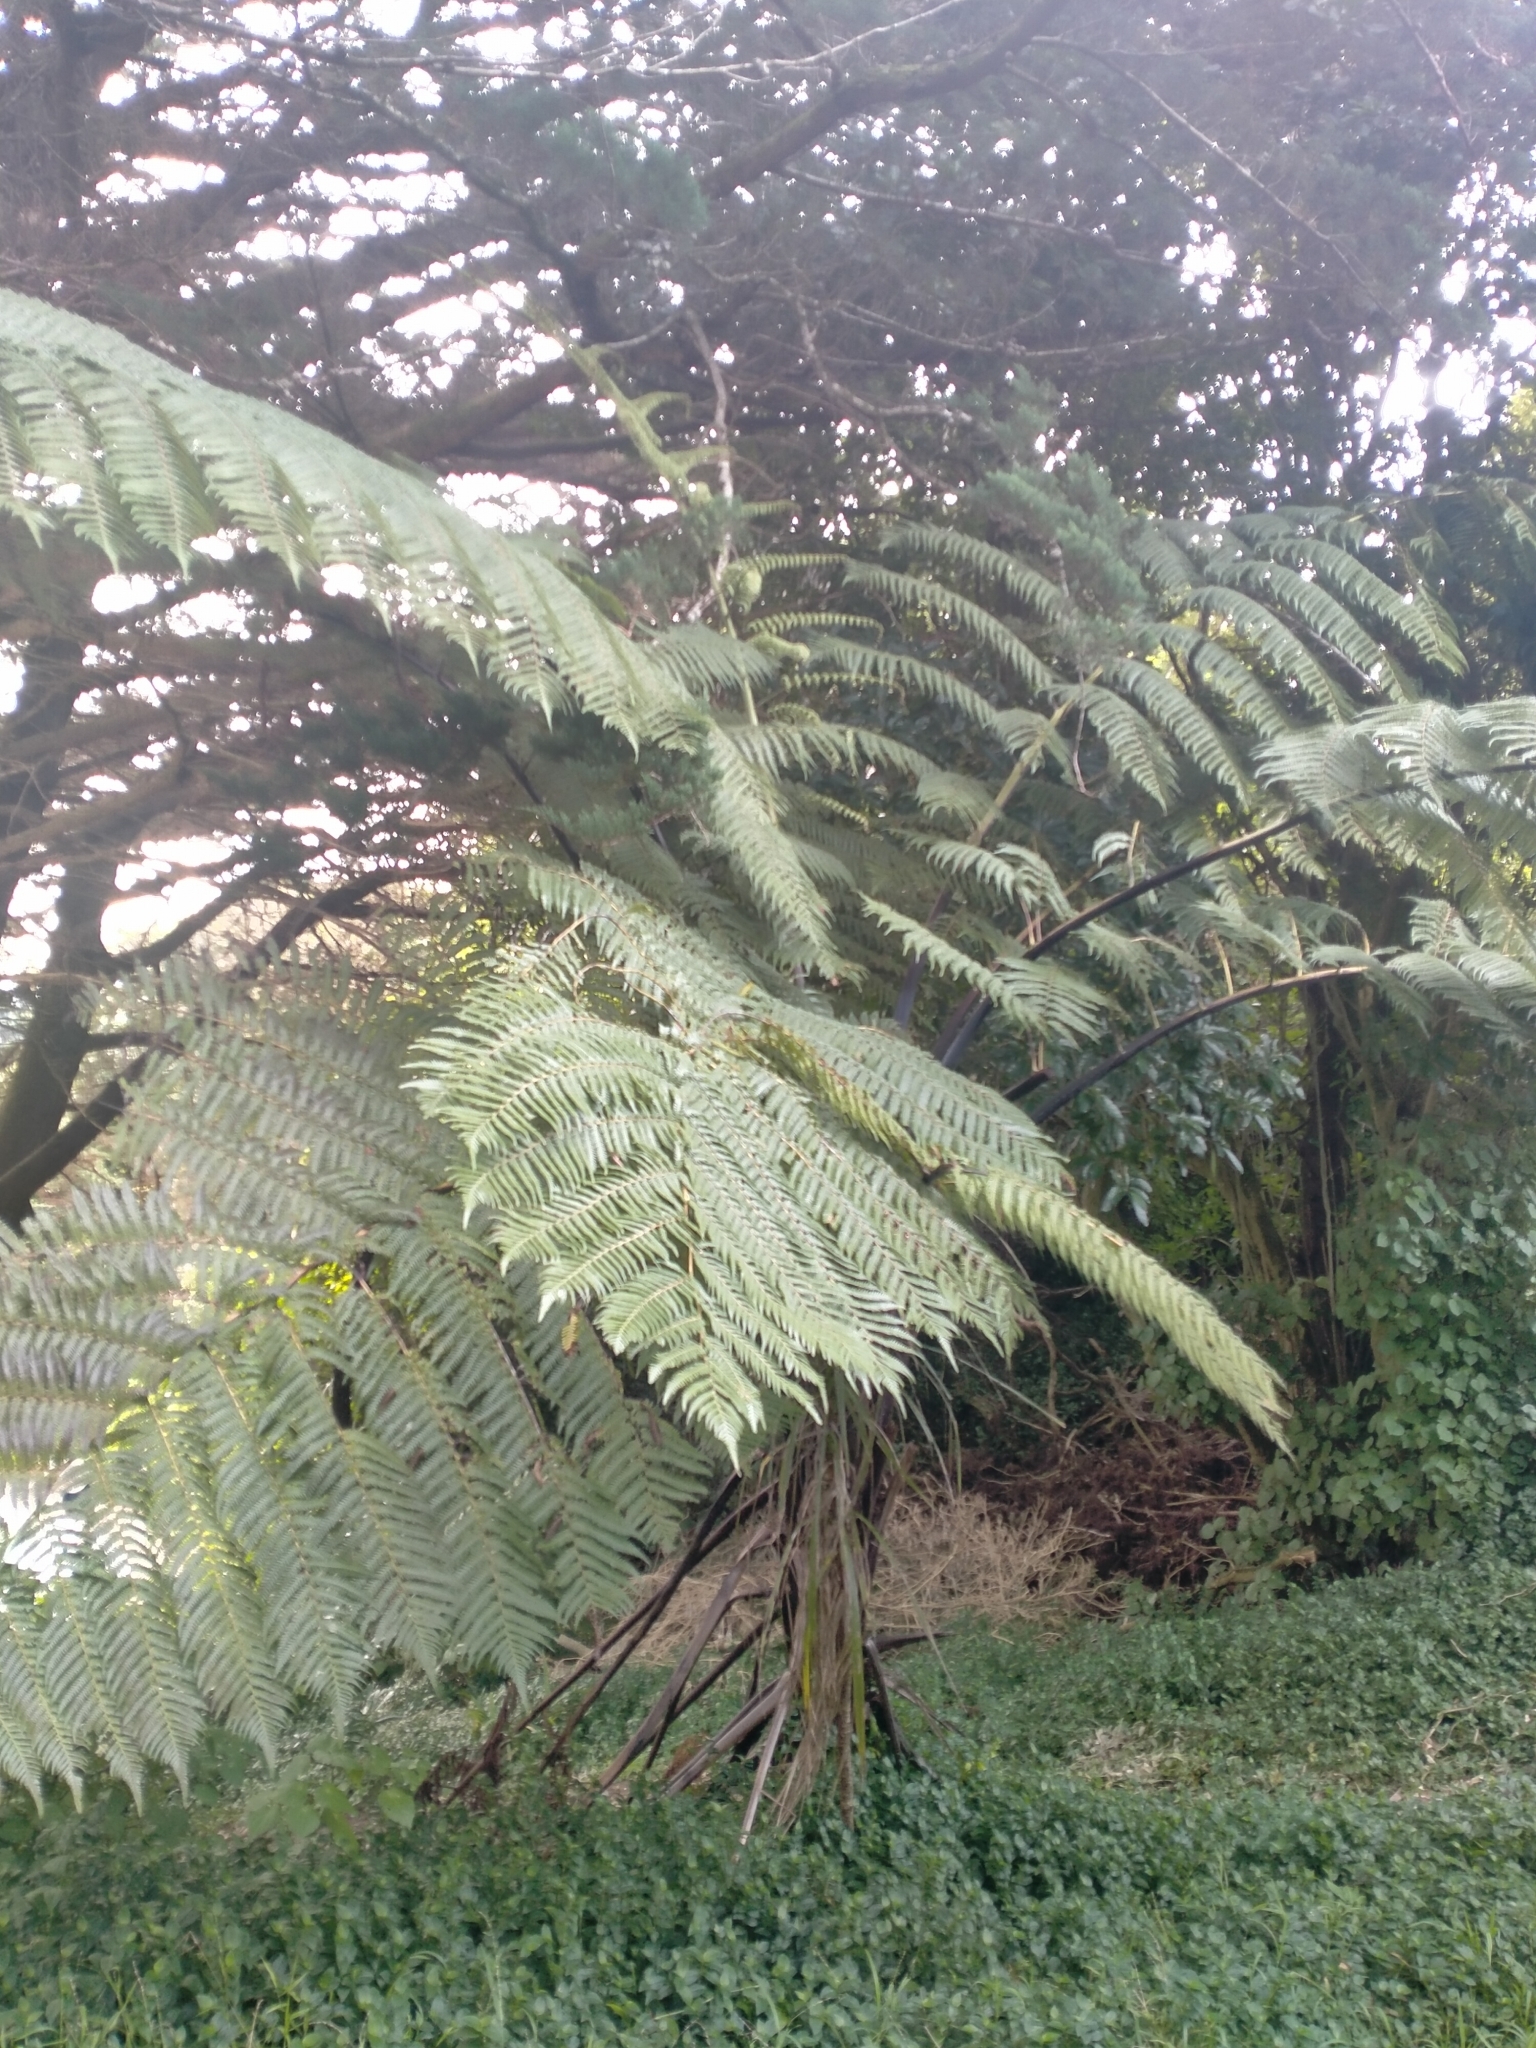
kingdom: Plantae
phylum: Tracheophyta
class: Polypodiopsida
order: Cyatheales
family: Cyatheaceae
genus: Sphaeropteris
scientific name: Sphaeropteris medullaris
